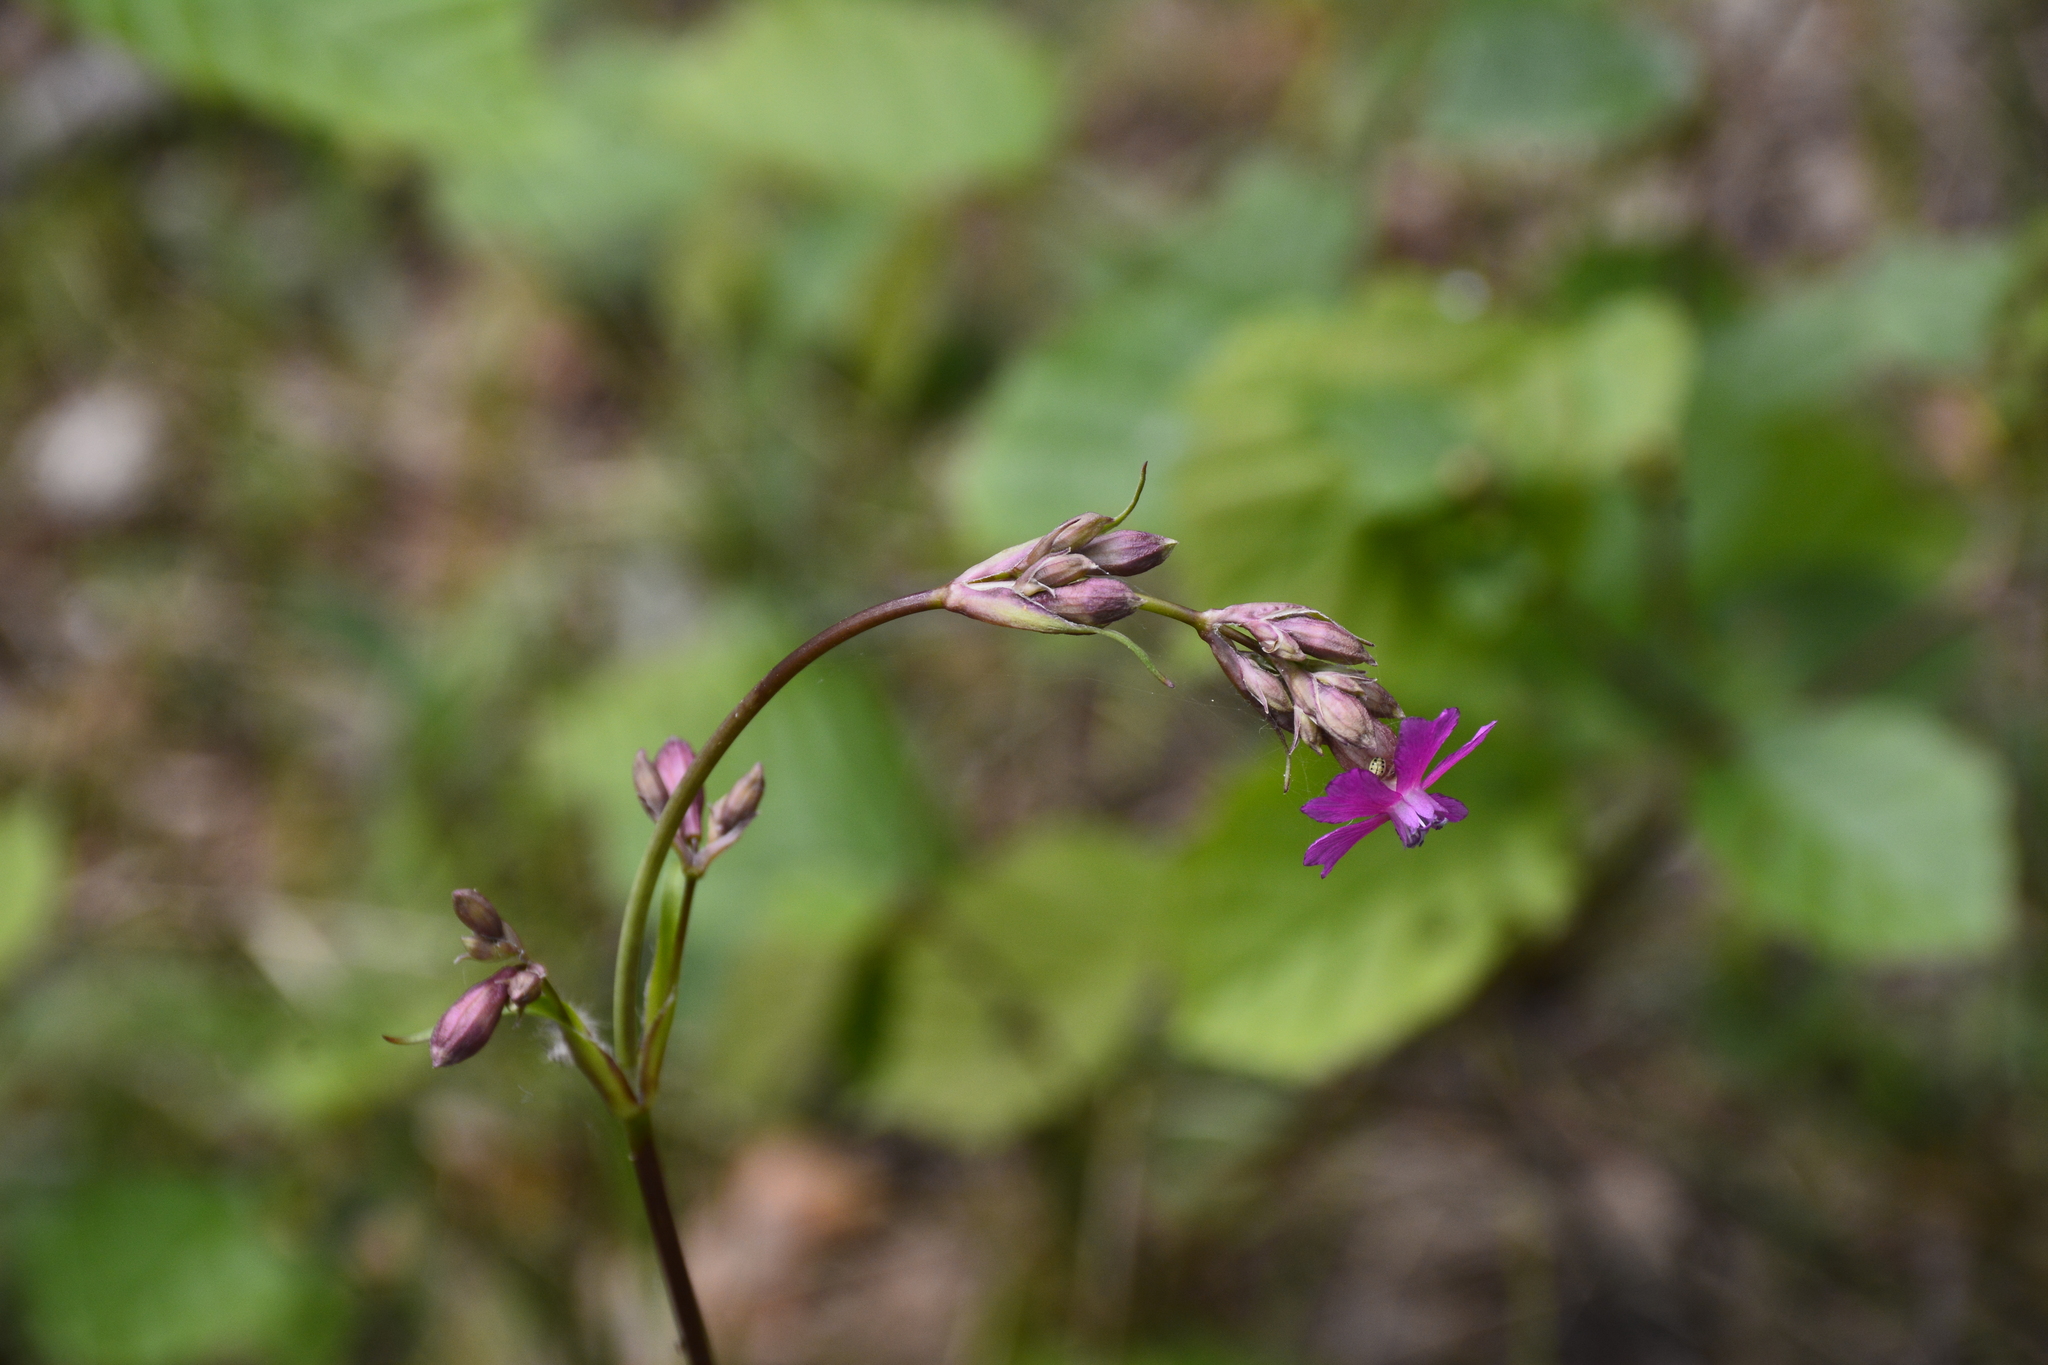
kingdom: Plantae
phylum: Tracheophyta
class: Magnoliopsida
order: Caryophyllales
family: Caryophyllaceae
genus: Viscaria
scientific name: Viscaria vulgaris
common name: Clammy campion
